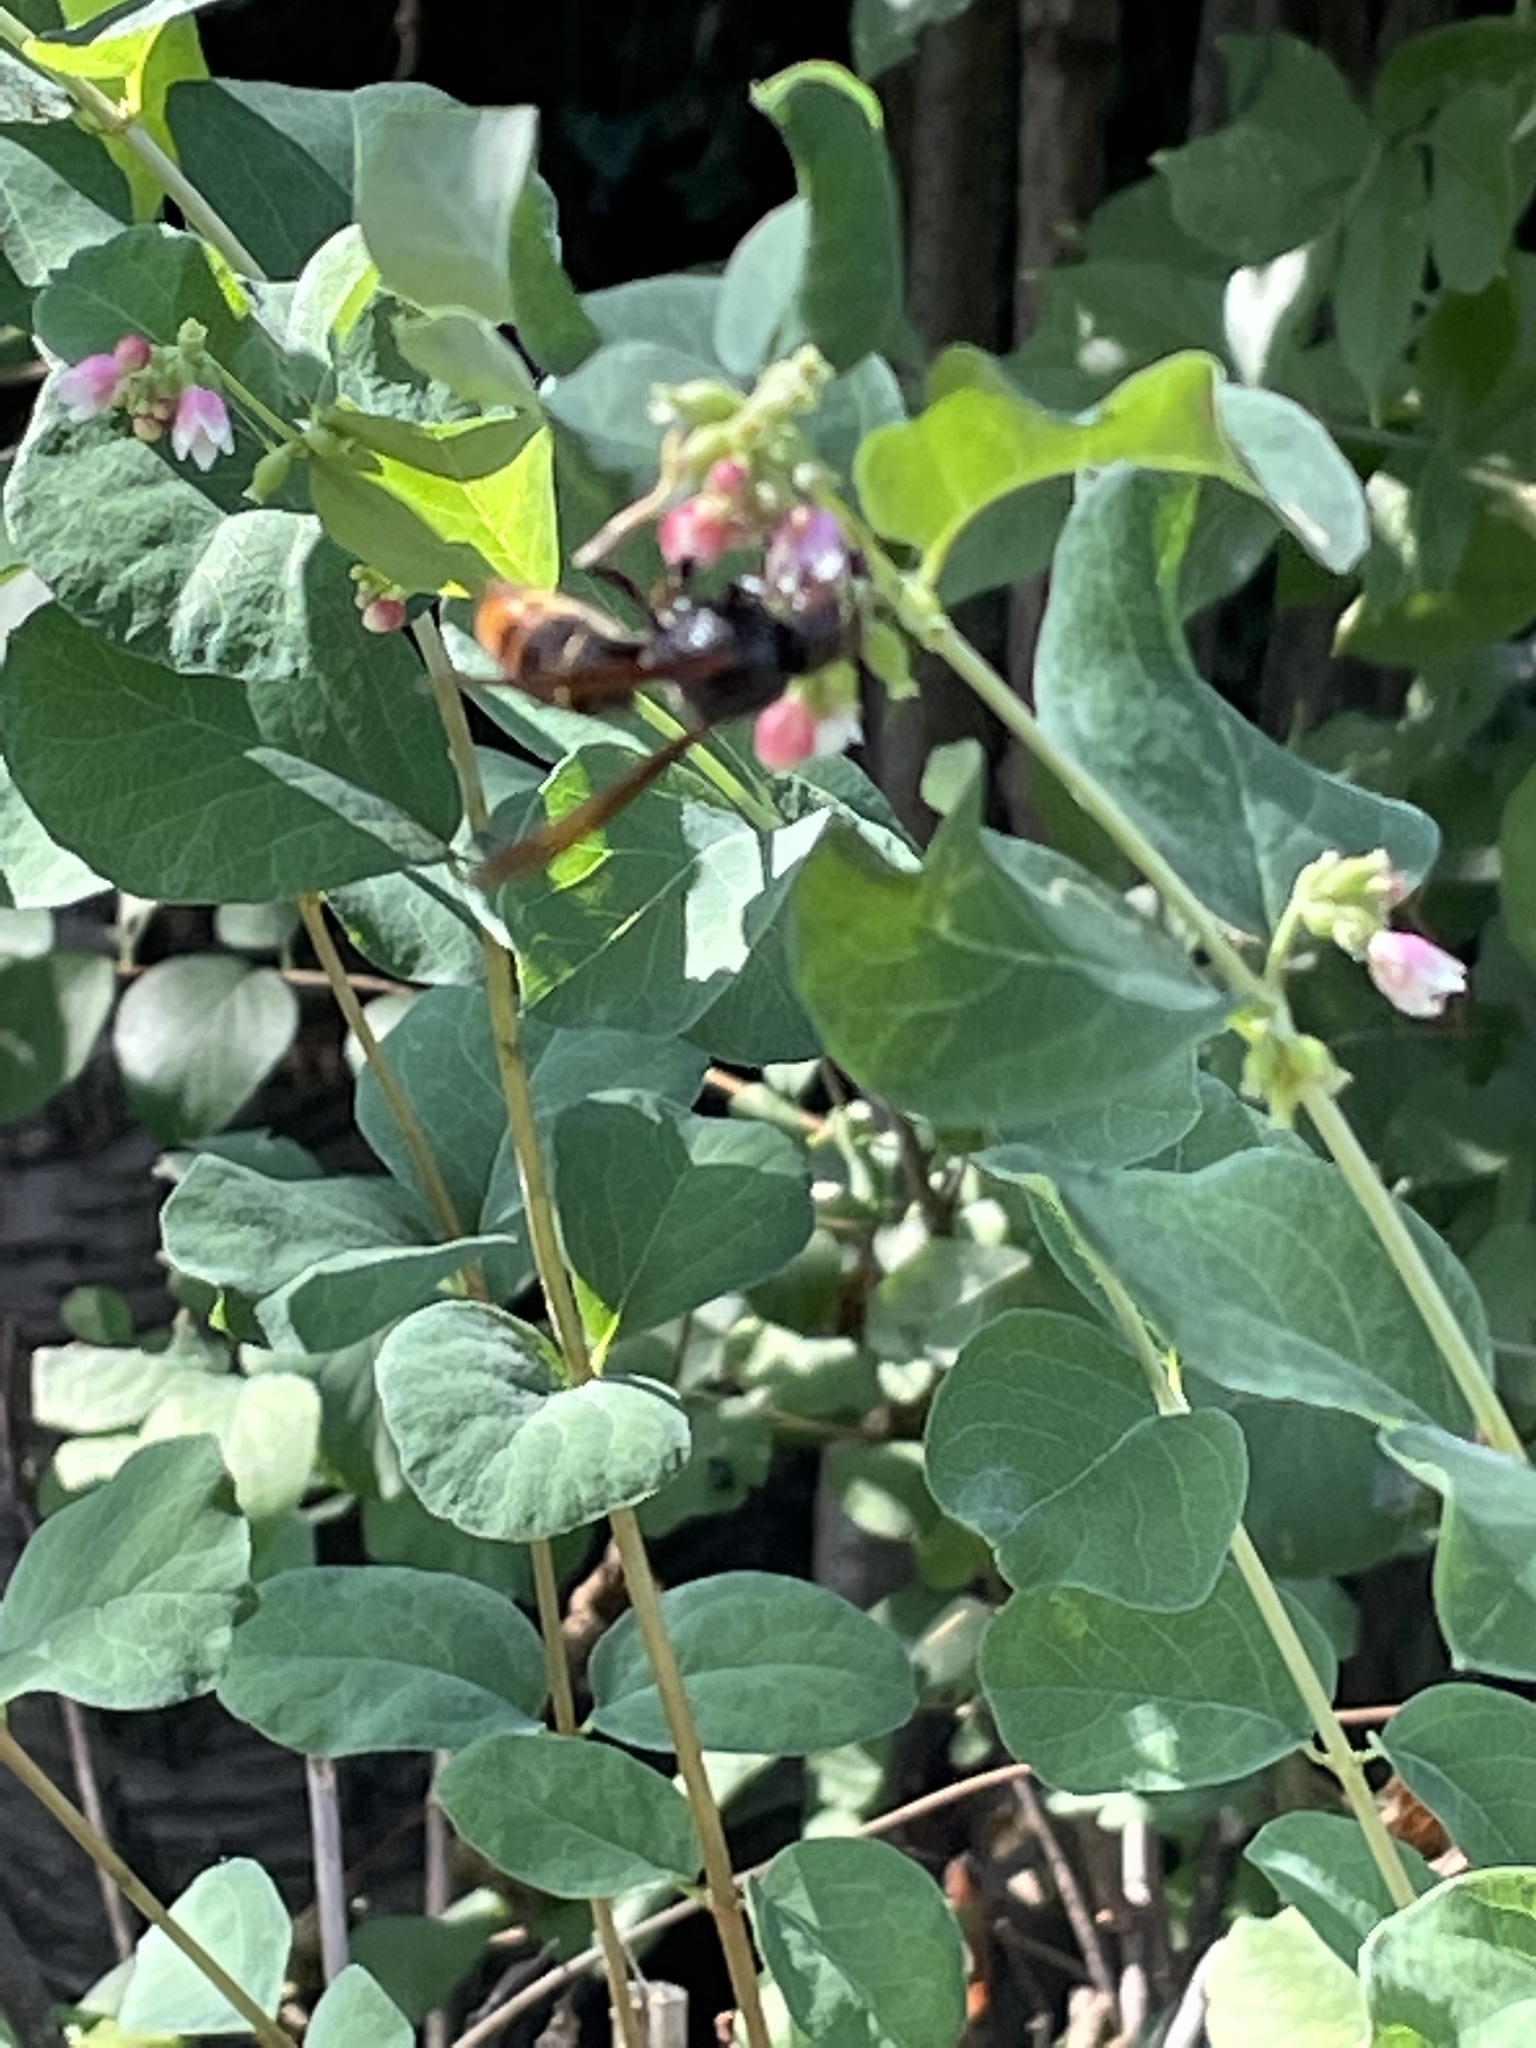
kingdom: Animalia
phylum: Arthropoda
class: Insecta
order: Hymenoptera
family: Vespidae
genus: Vespa
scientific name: Vespa velutina
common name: Asian hornet
